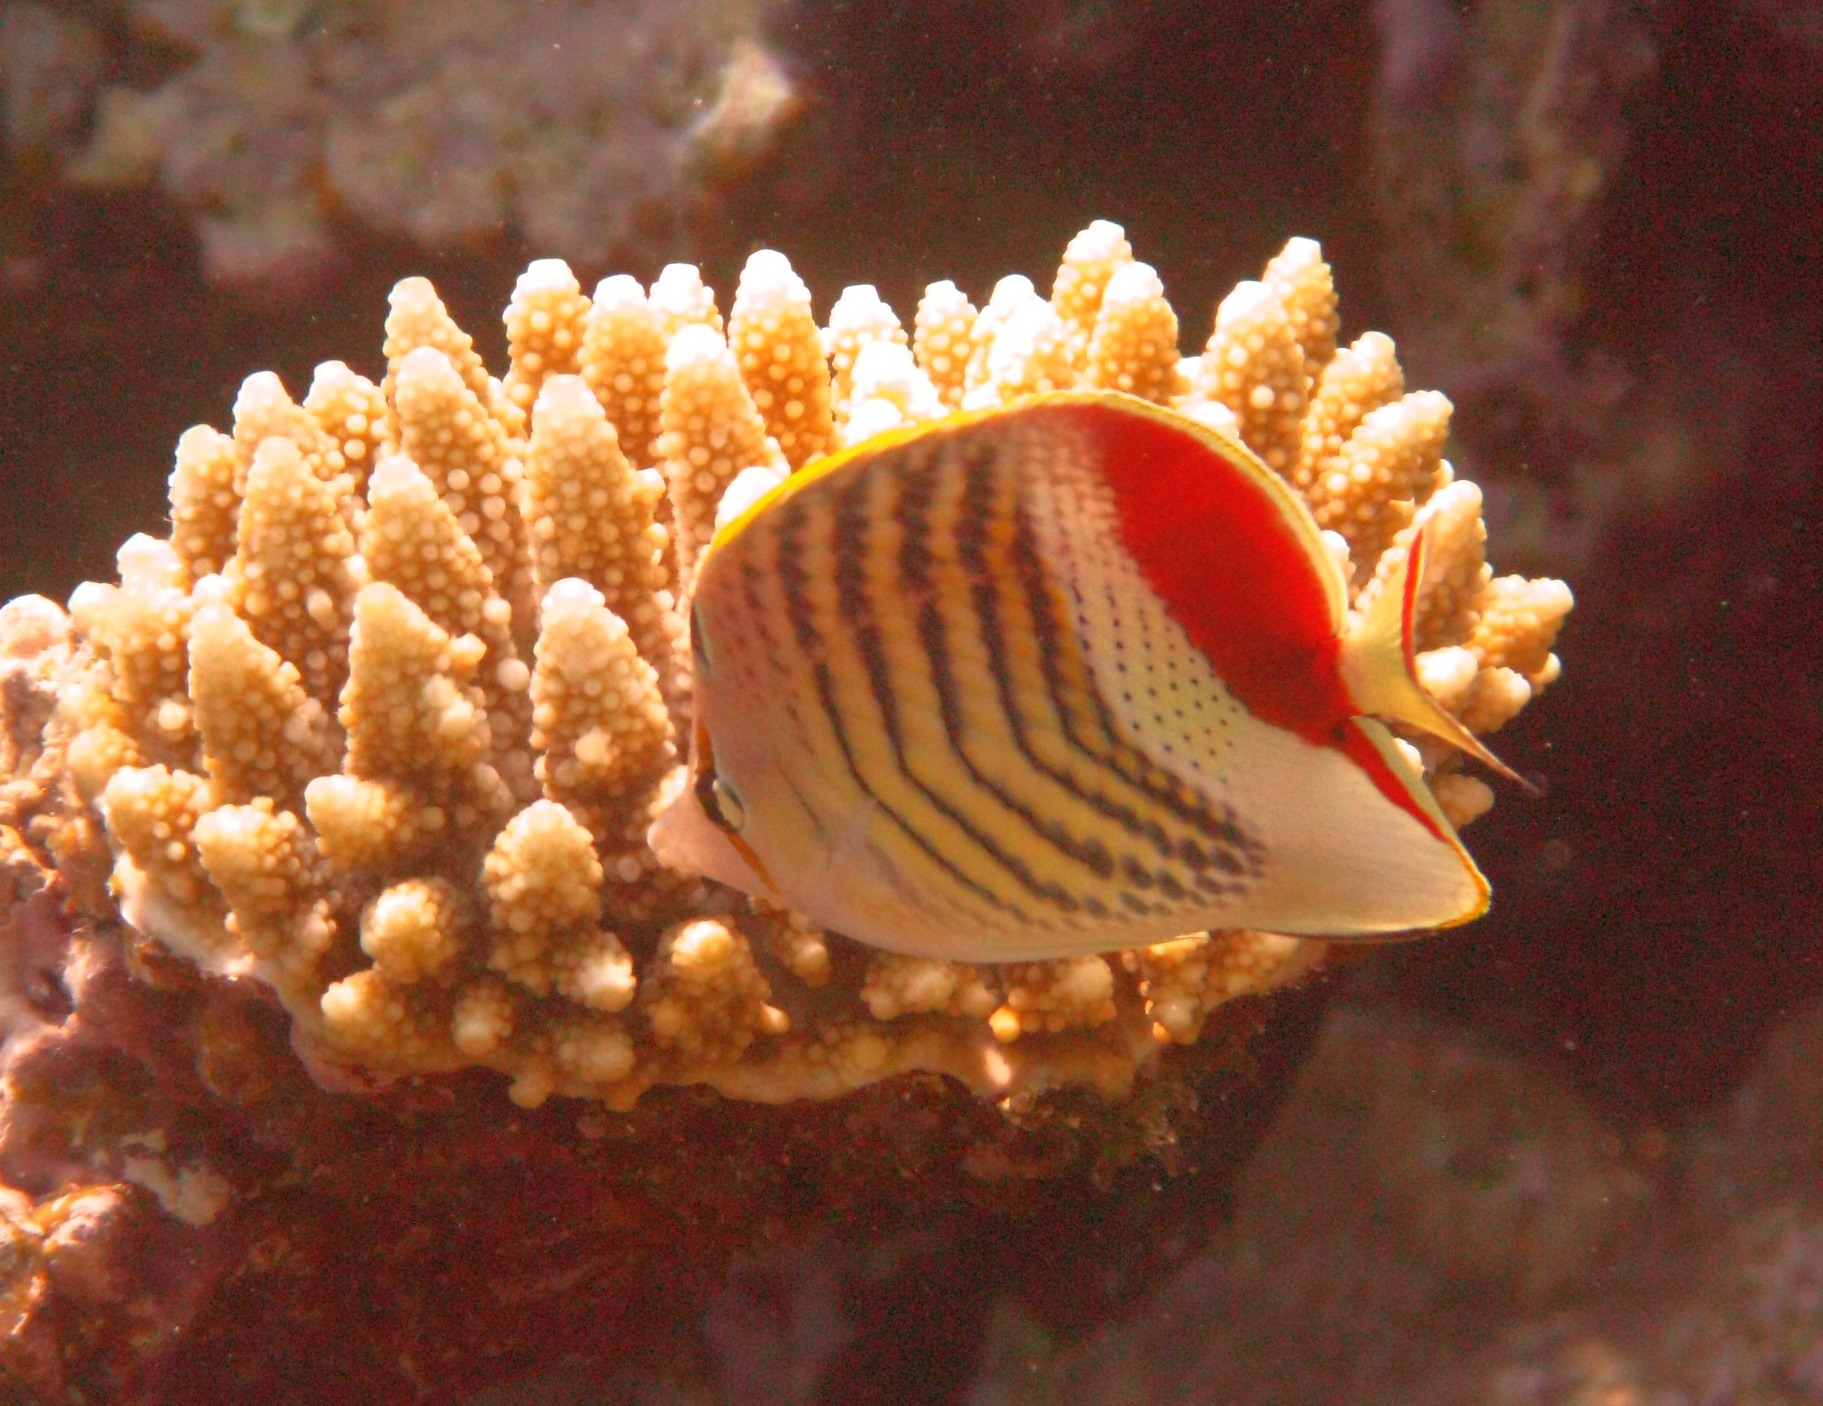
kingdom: Animalia
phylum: Chordata
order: Perciformes
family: Chaetodontidae
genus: Chaetodon
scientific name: Chaetodon paucifasciatus
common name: Crown butterflyfish
